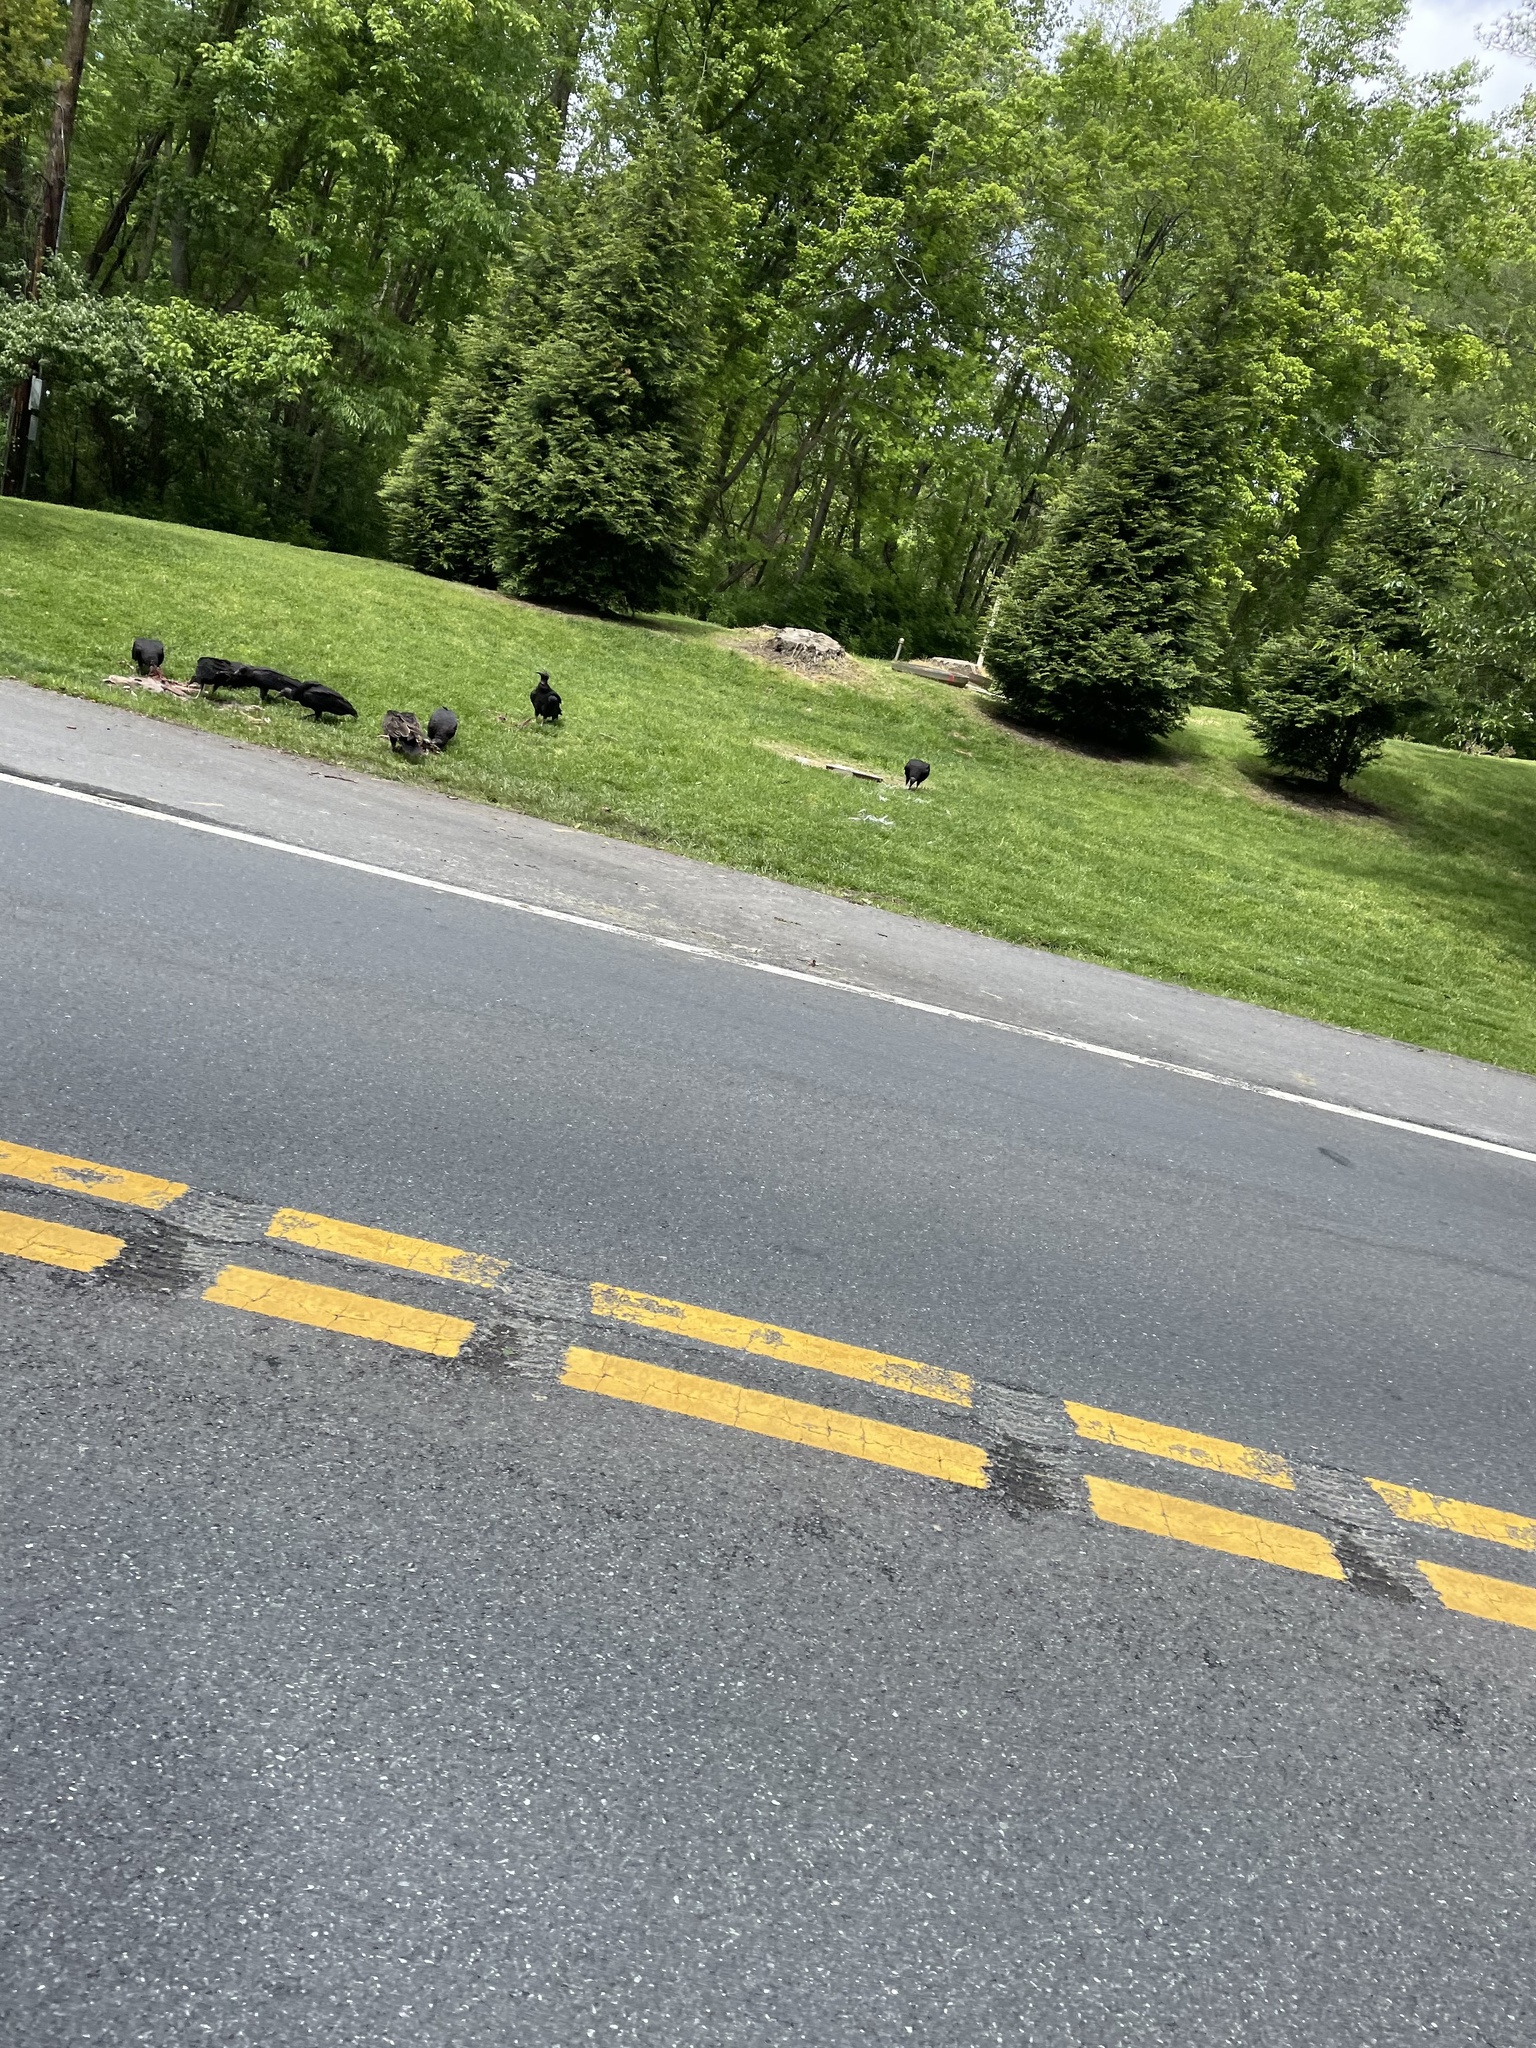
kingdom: Animalia
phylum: Chordata
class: Aves
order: Accipitriformes
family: Cathartidae
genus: Coragyps
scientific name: Coragyps atratus
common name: Black vulture
